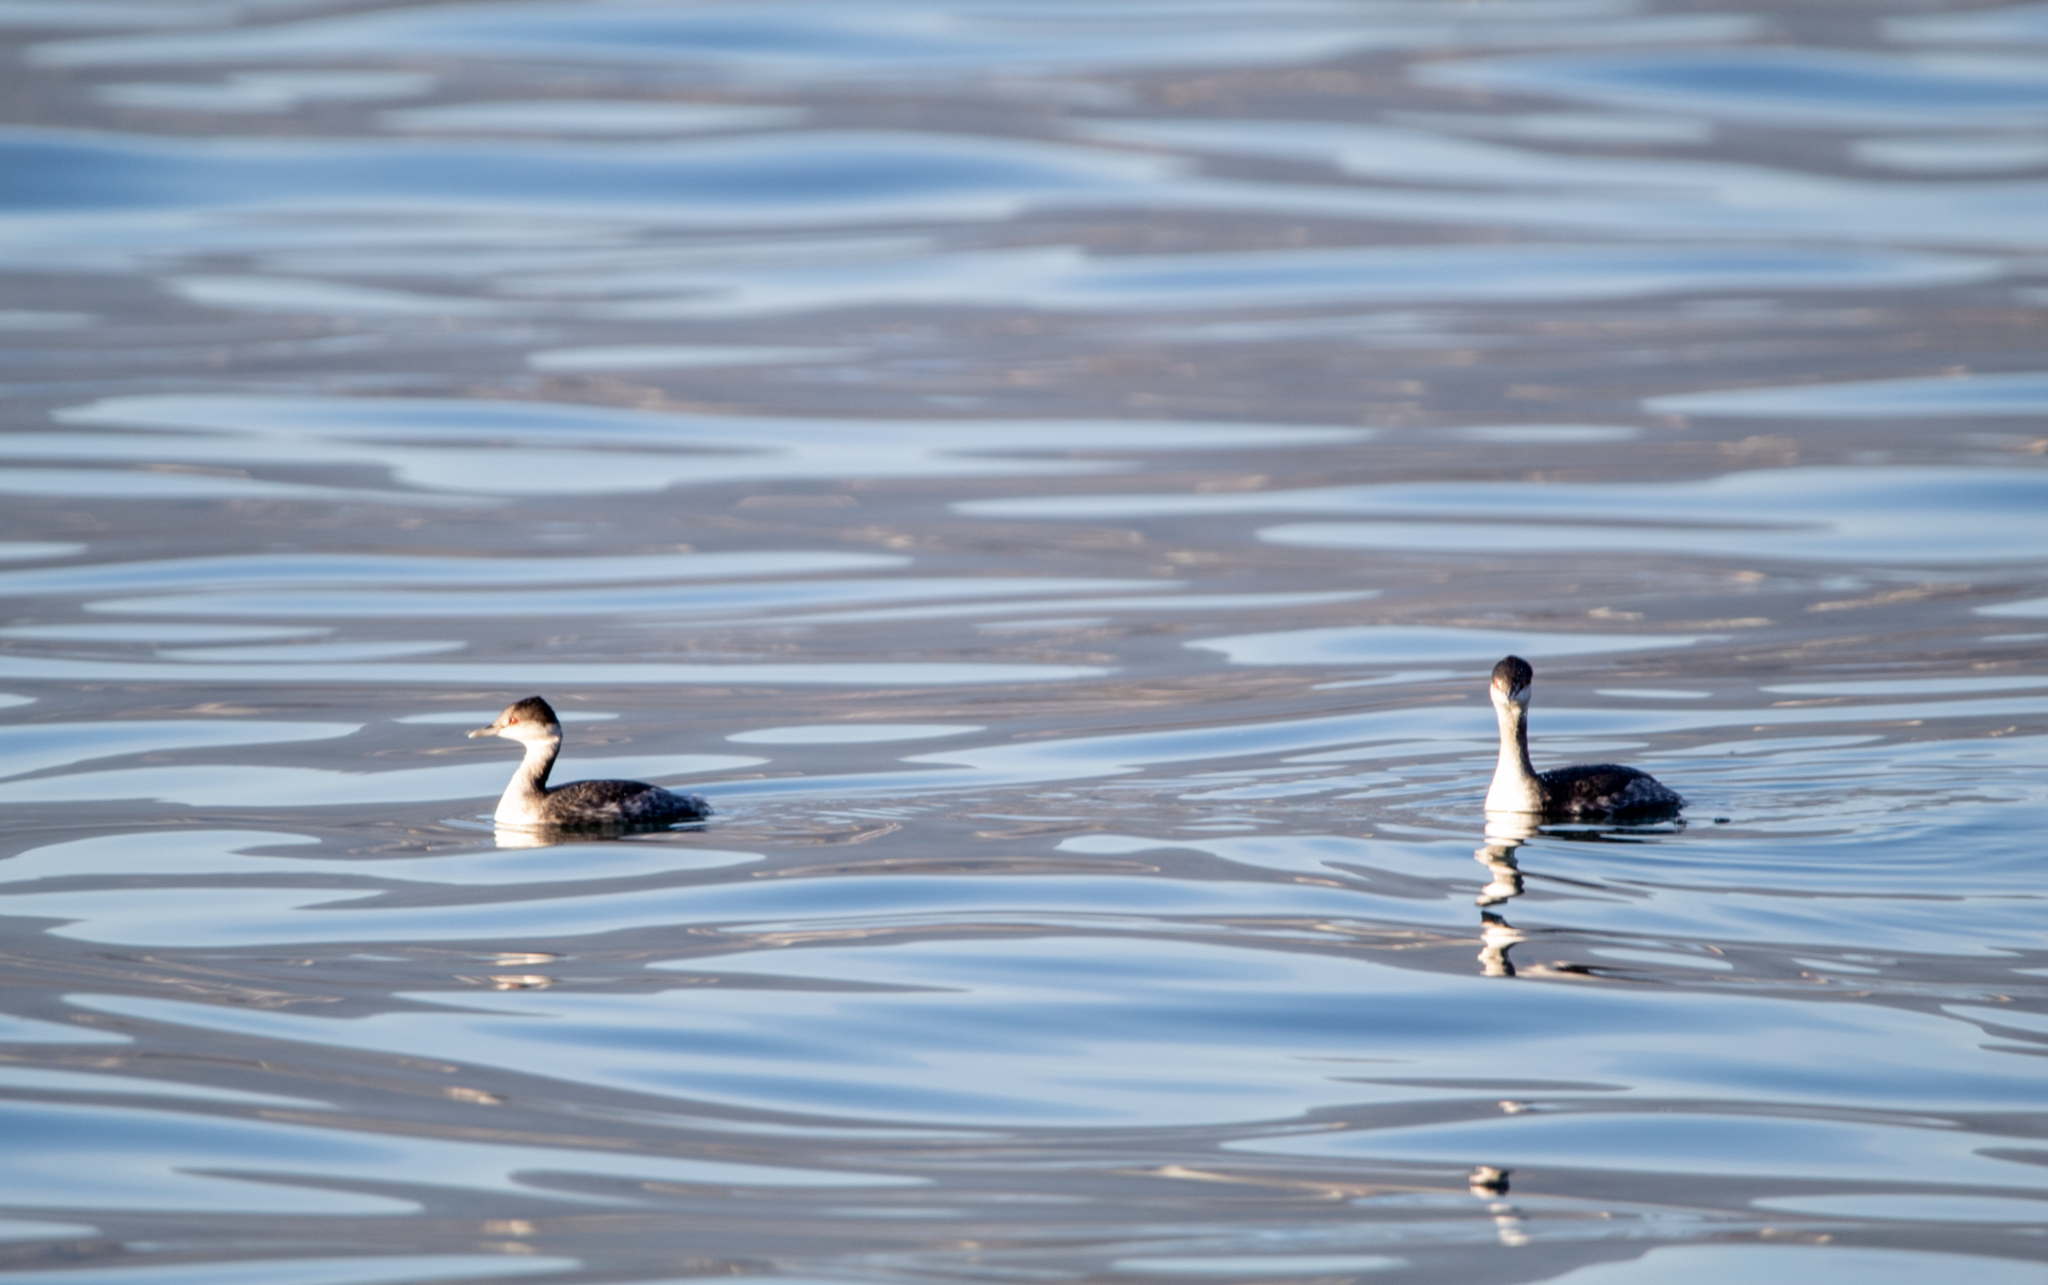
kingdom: Animalia
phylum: Chordata
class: Aves
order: Podicipediformes
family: Podicipedidae
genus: Podiceps
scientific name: Podiceps auritus
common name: Horned grebe
